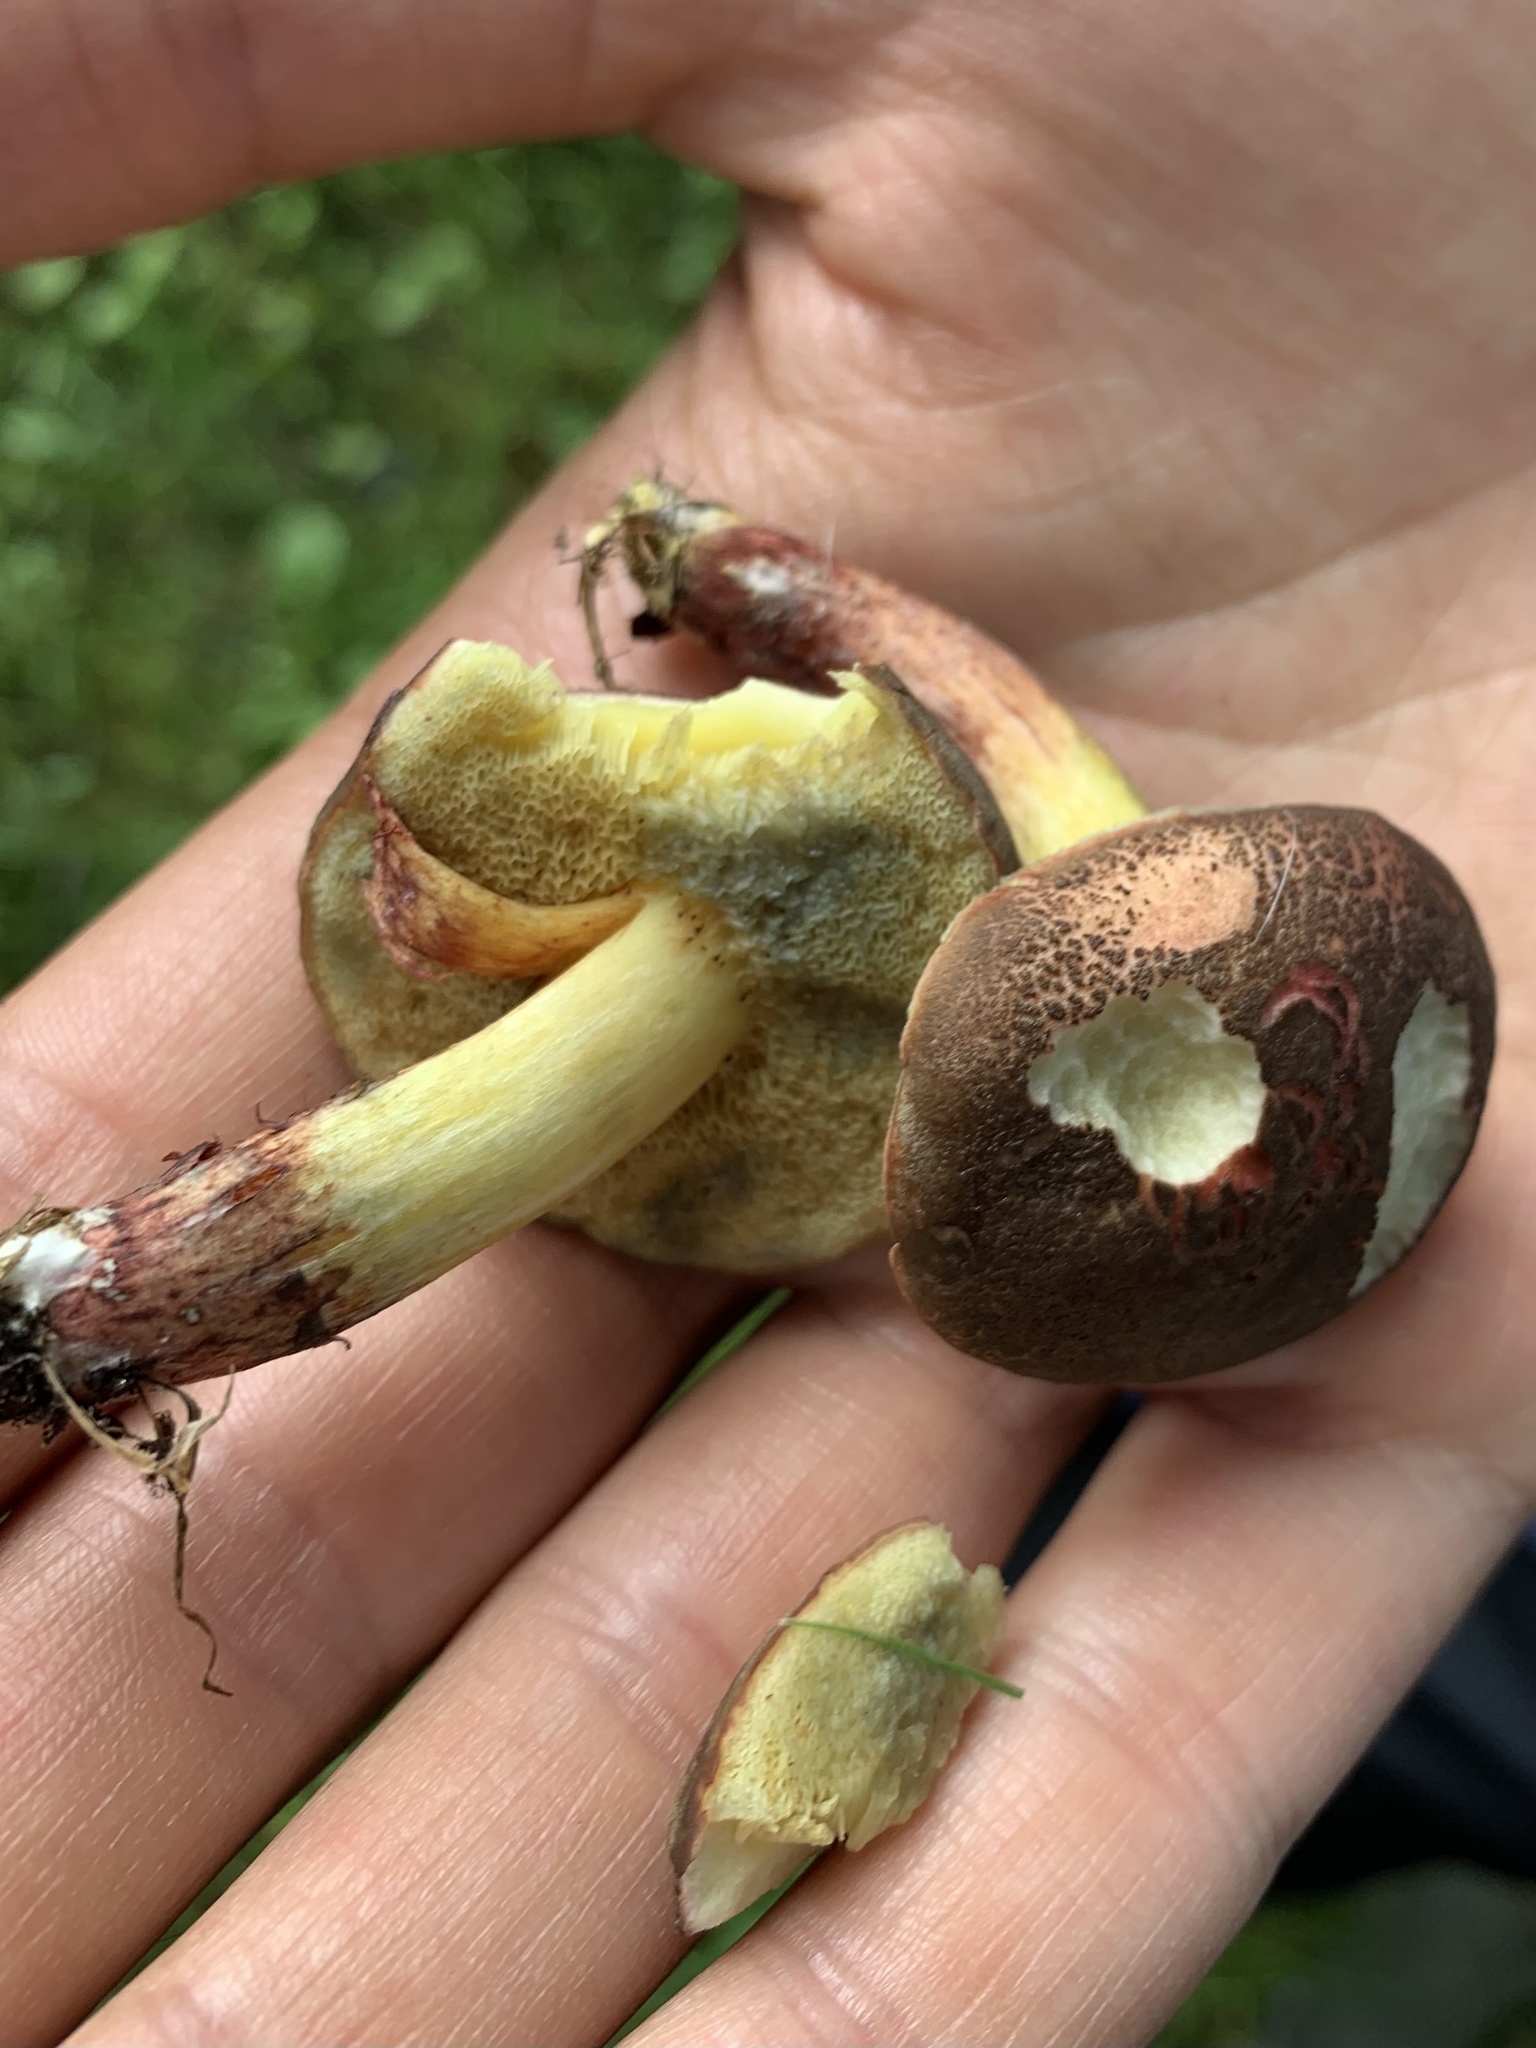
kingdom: Fungi
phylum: Basidiomycota
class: Agaricomycetes
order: Boletales
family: Boletaceae
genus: Xerocomellus
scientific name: Xerocomellus cisalpinus
